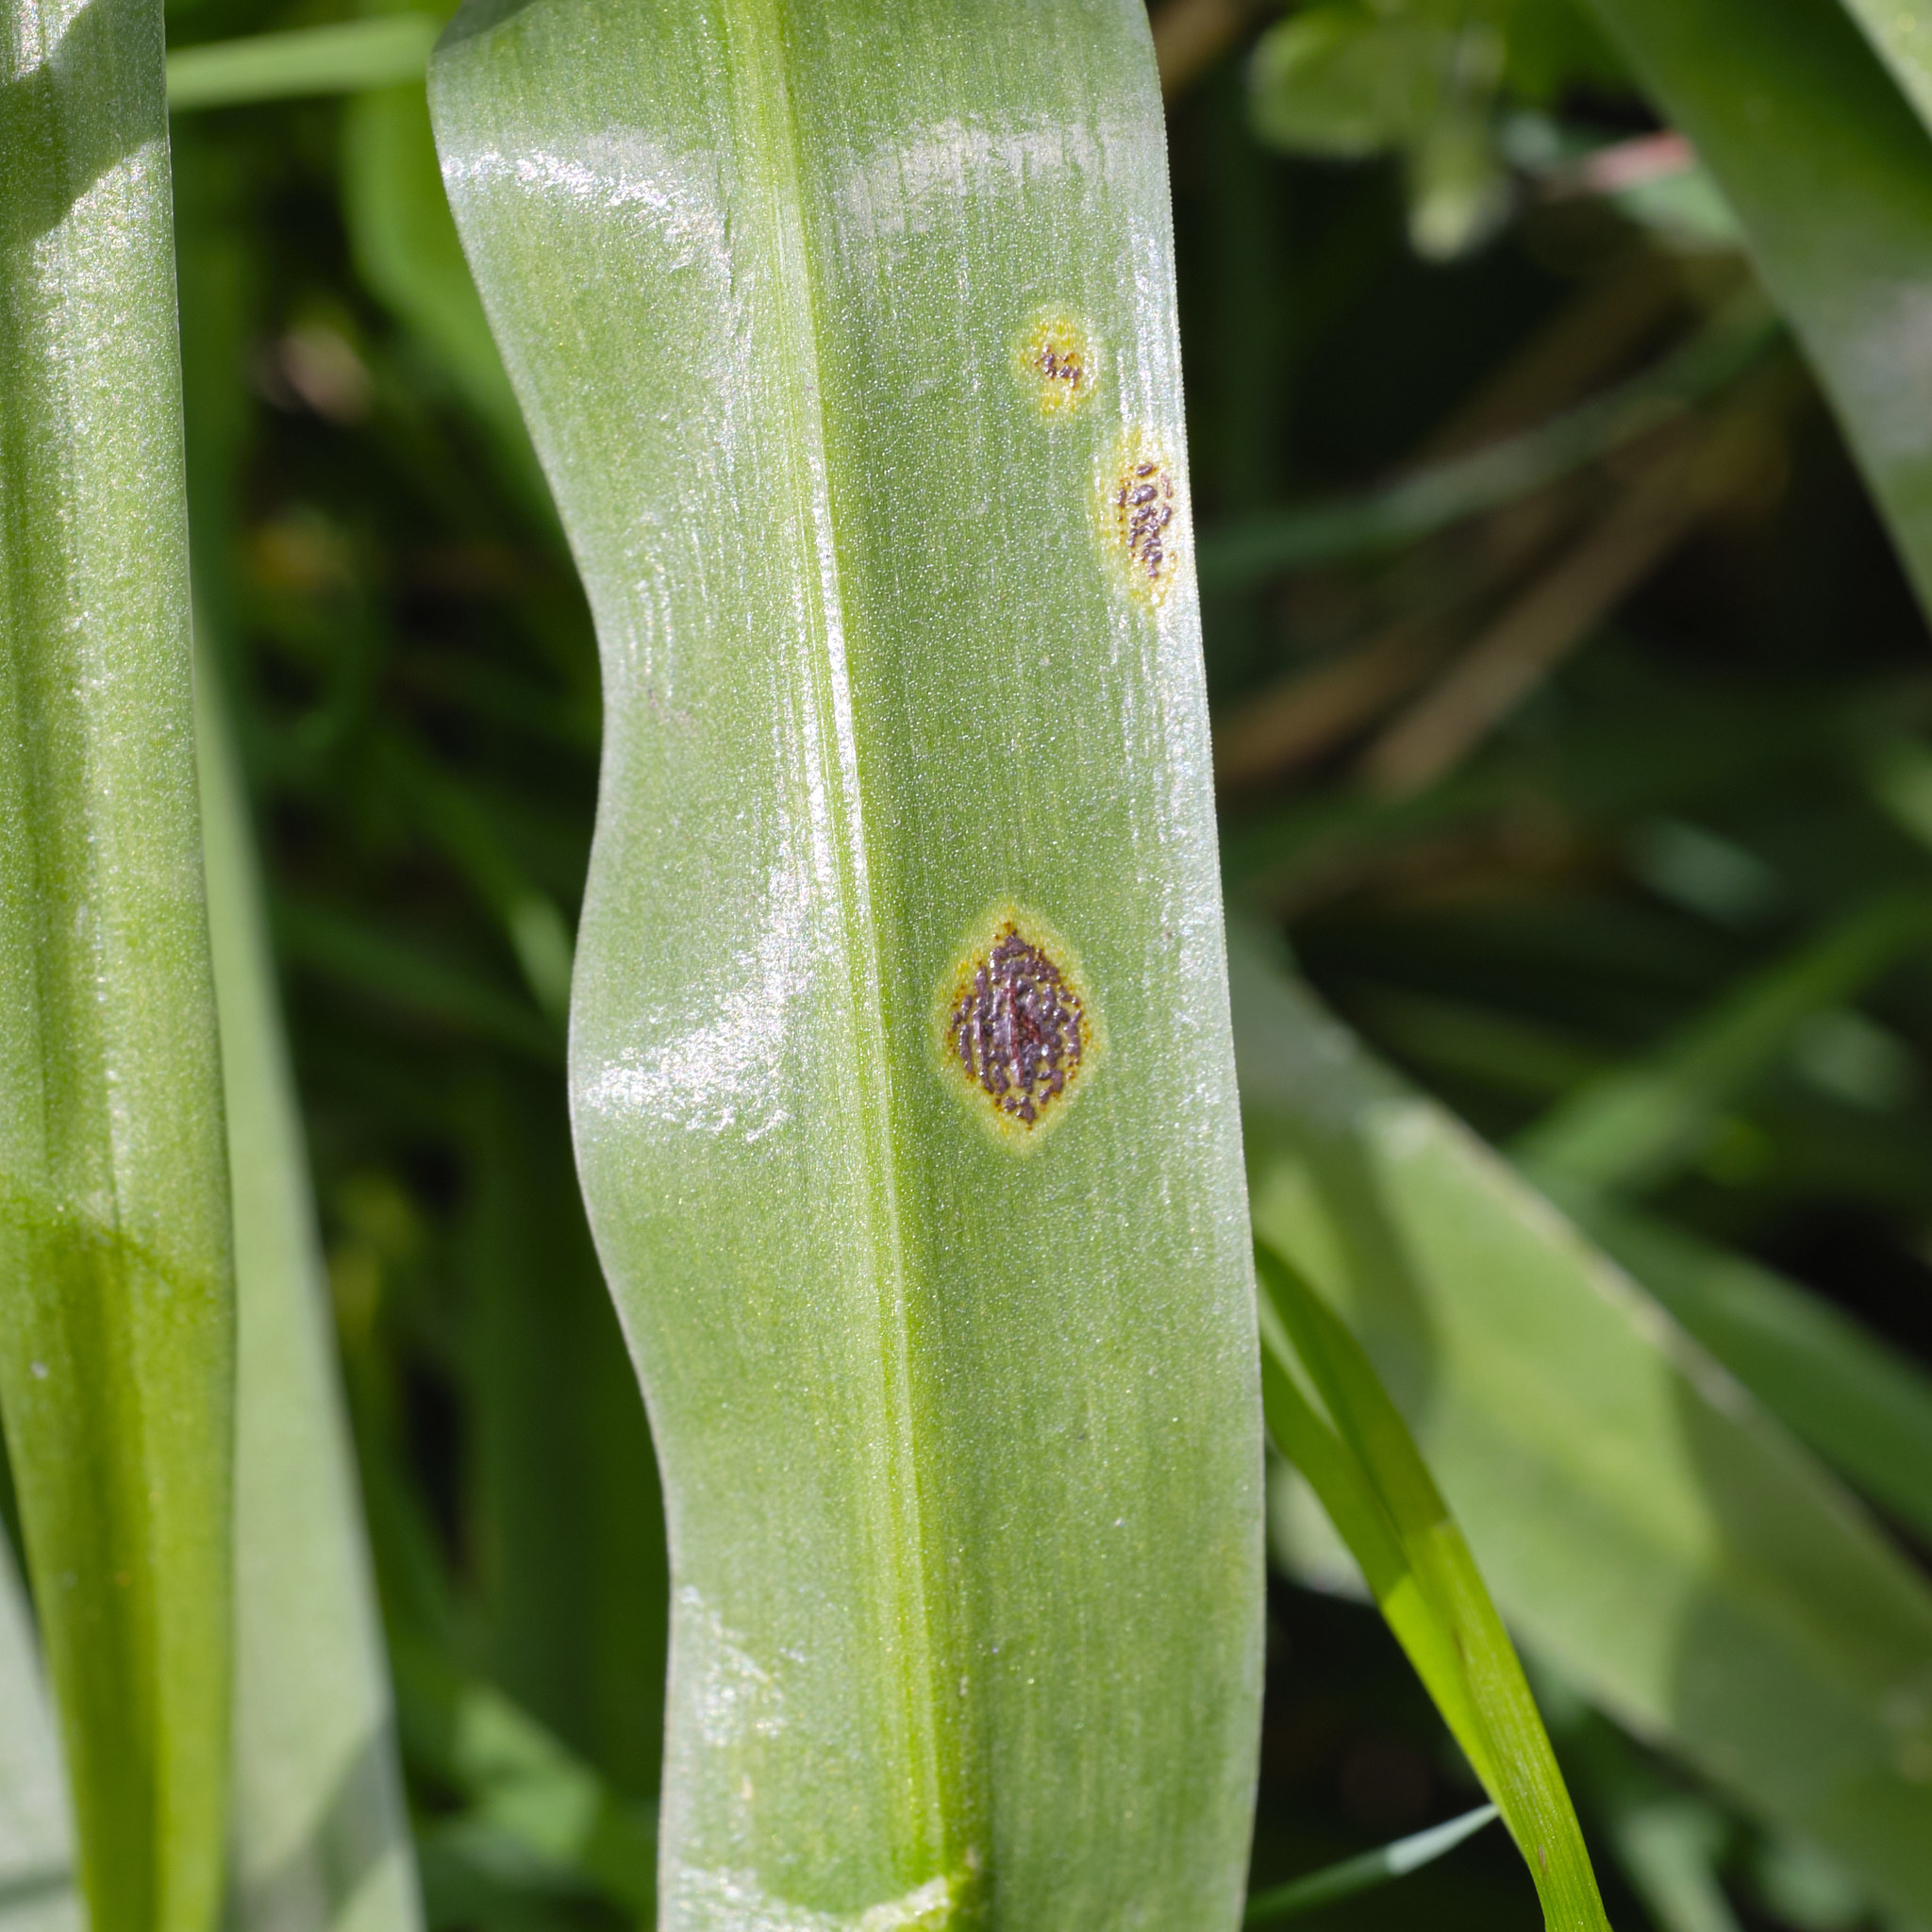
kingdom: Fungi
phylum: Basidiomycota
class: Pucciniomycetes
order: Pucciniales
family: Pucciniaceae
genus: Uromyces
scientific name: Uromyces hyacinthi
